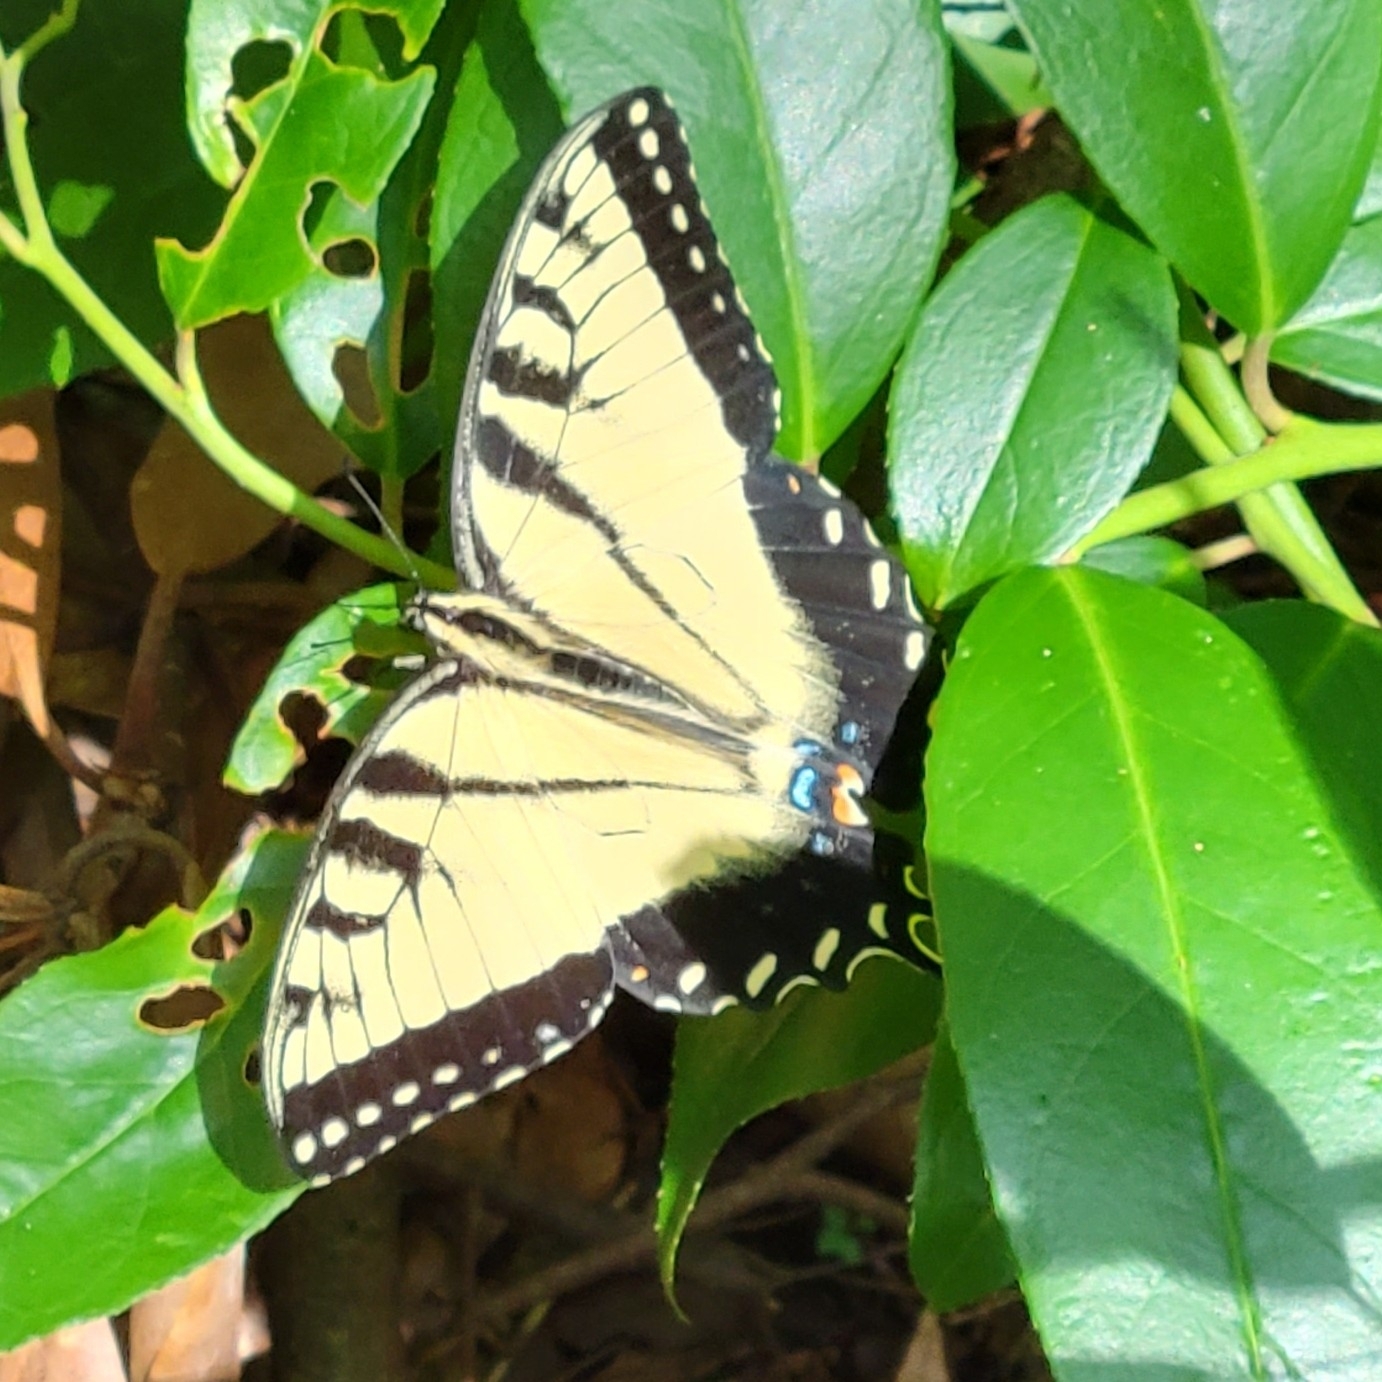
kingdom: Animalia
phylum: Arthropoda
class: Insecta
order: Lepidoptera
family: Papilionidae
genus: Papilio
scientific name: Papilio glaucus
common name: Tiger swallowtail
